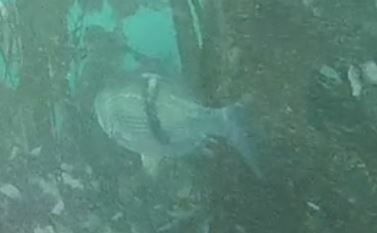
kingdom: Animalia
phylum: Chordata
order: Perciformes
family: Embiotocidae
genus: Rhacochilus
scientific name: Rhacochilus vacca
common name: Pile perch
